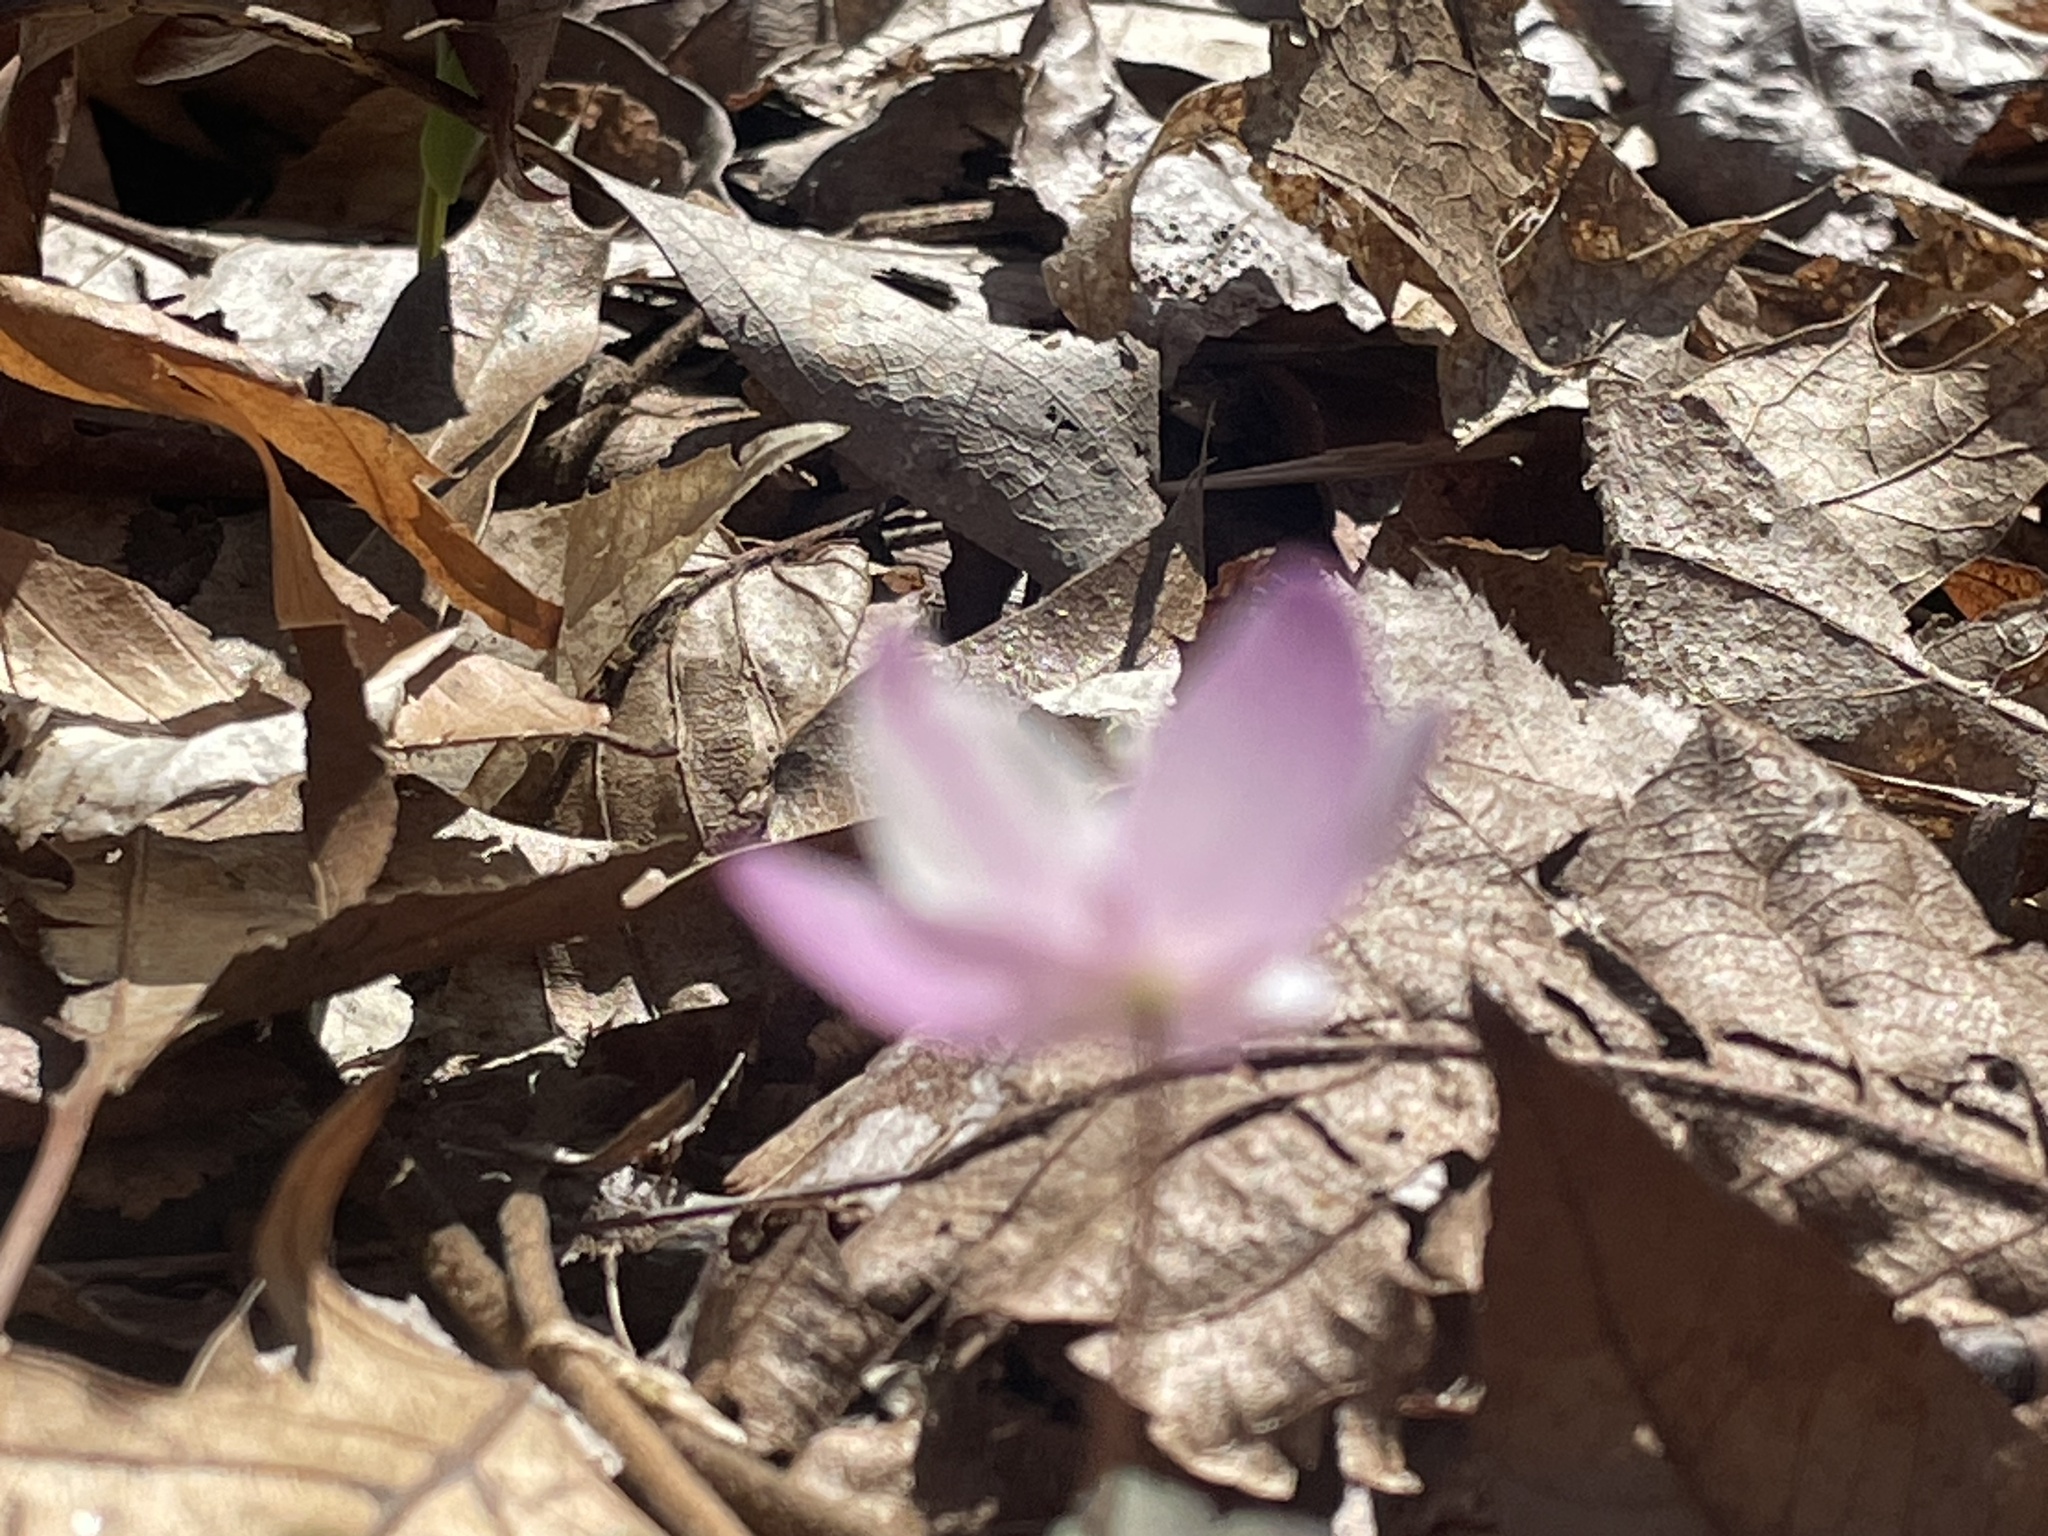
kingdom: Plantae
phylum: Tracheophyta
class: Magnoliopsida
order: Ranunculales
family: Ranunculaceae
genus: Anemone
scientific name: Anemone quinquefolia
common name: Wood anemone
